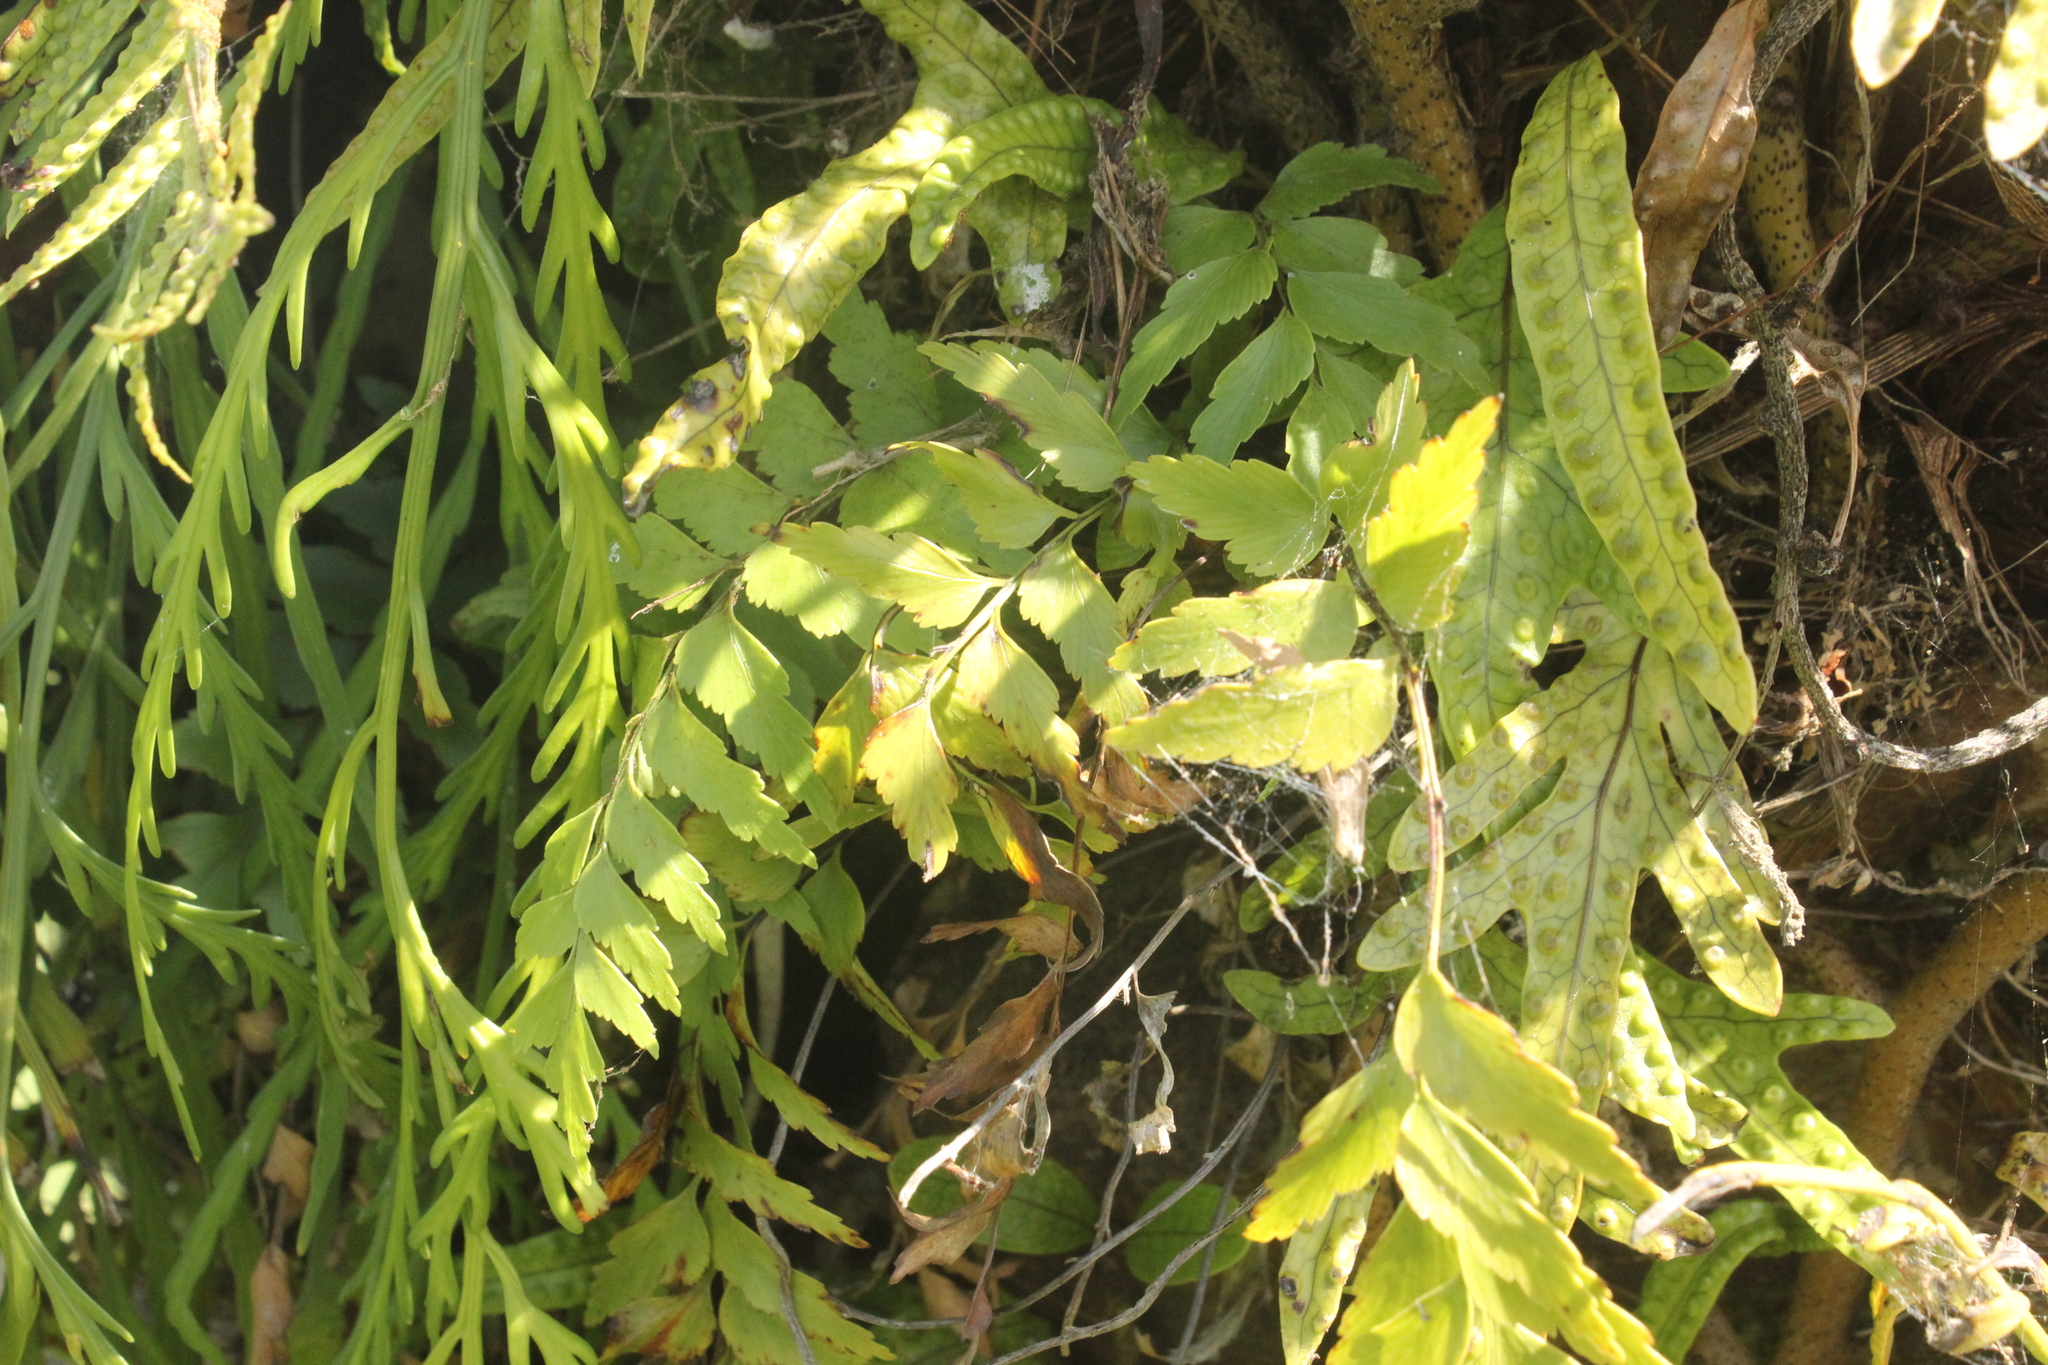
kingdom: Plantae
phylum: Tracheophyta
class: Polypodiopsida
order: Polypodiales
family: Aspleniaceae
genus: Asplenium
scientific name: Asplenium polyodon
